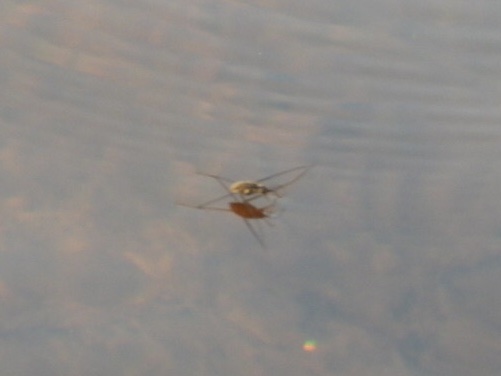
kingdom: Animalia
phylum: Arthropoda
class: Insecta
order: Hemiptera
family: Gerridae
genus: Metrobates
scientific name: Metrobates hesperius
